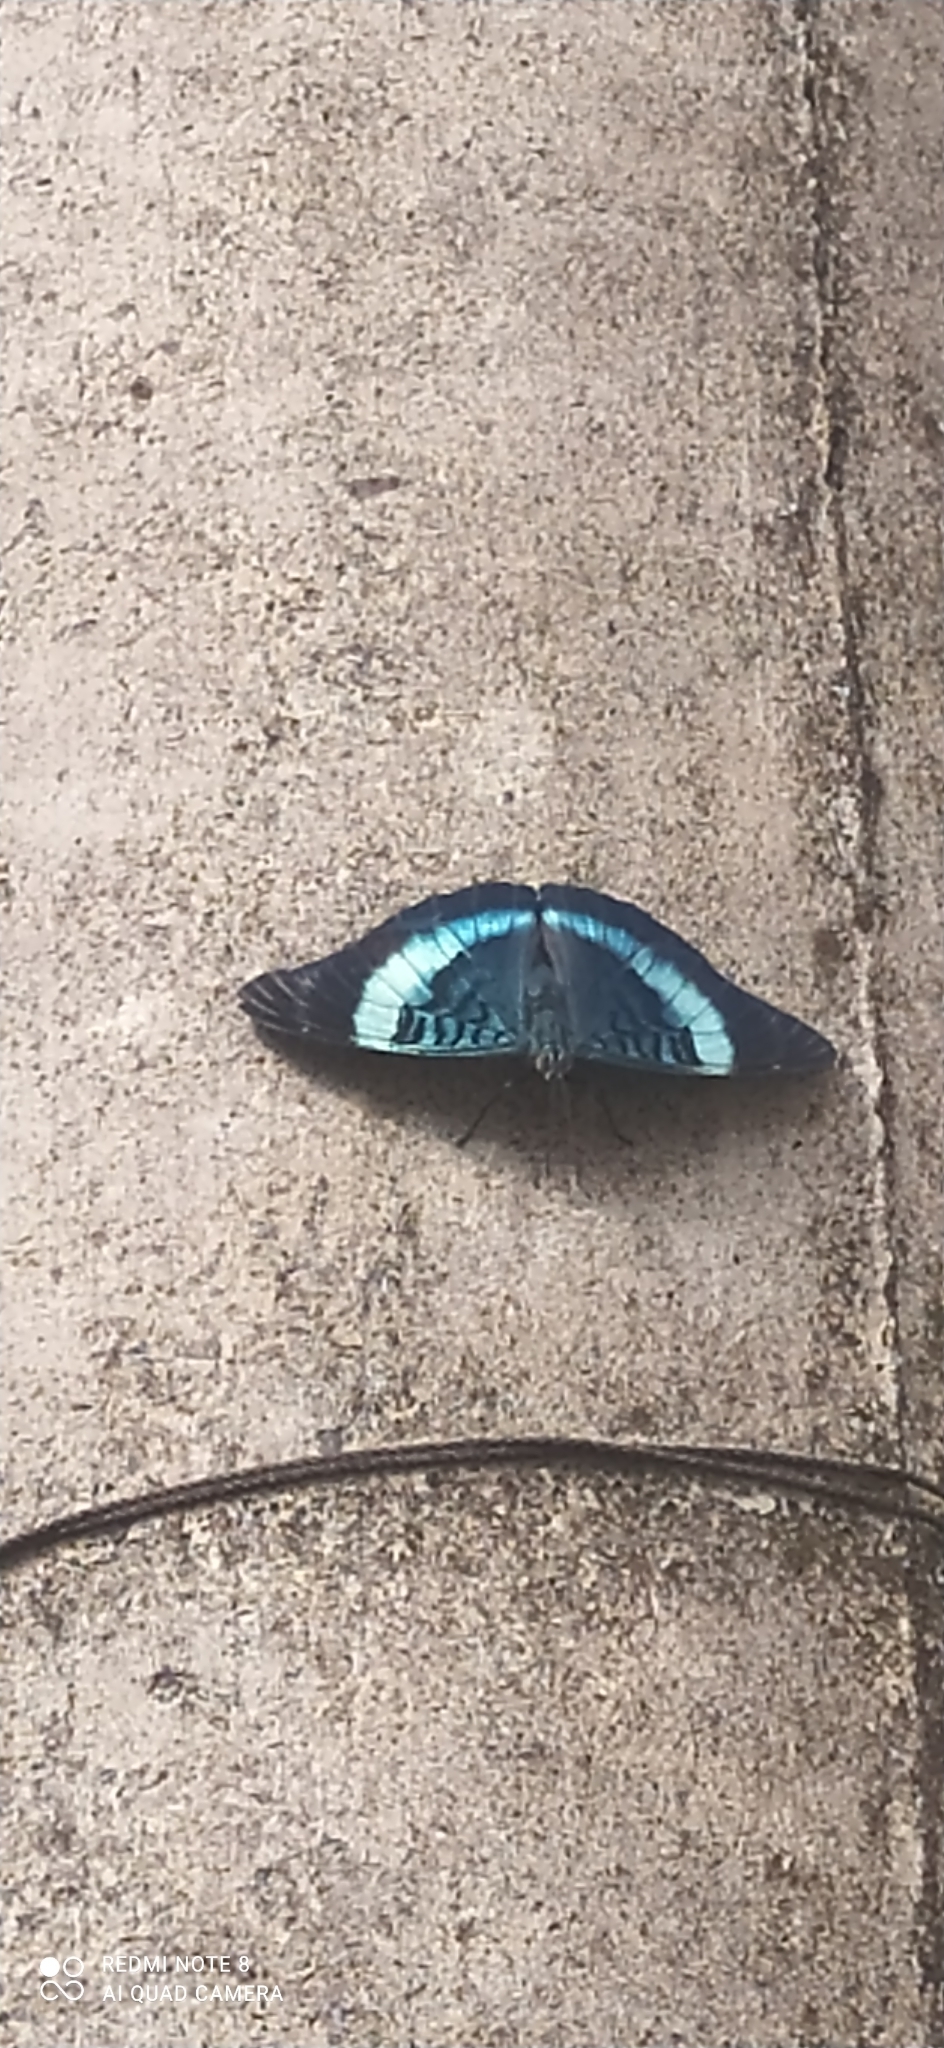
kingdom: Animalia
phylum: Arthropoda
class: Insecta
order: Lepidoptera
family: Nymphalidae
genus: Panacea
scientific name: Panacea prola
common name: Red flasher
